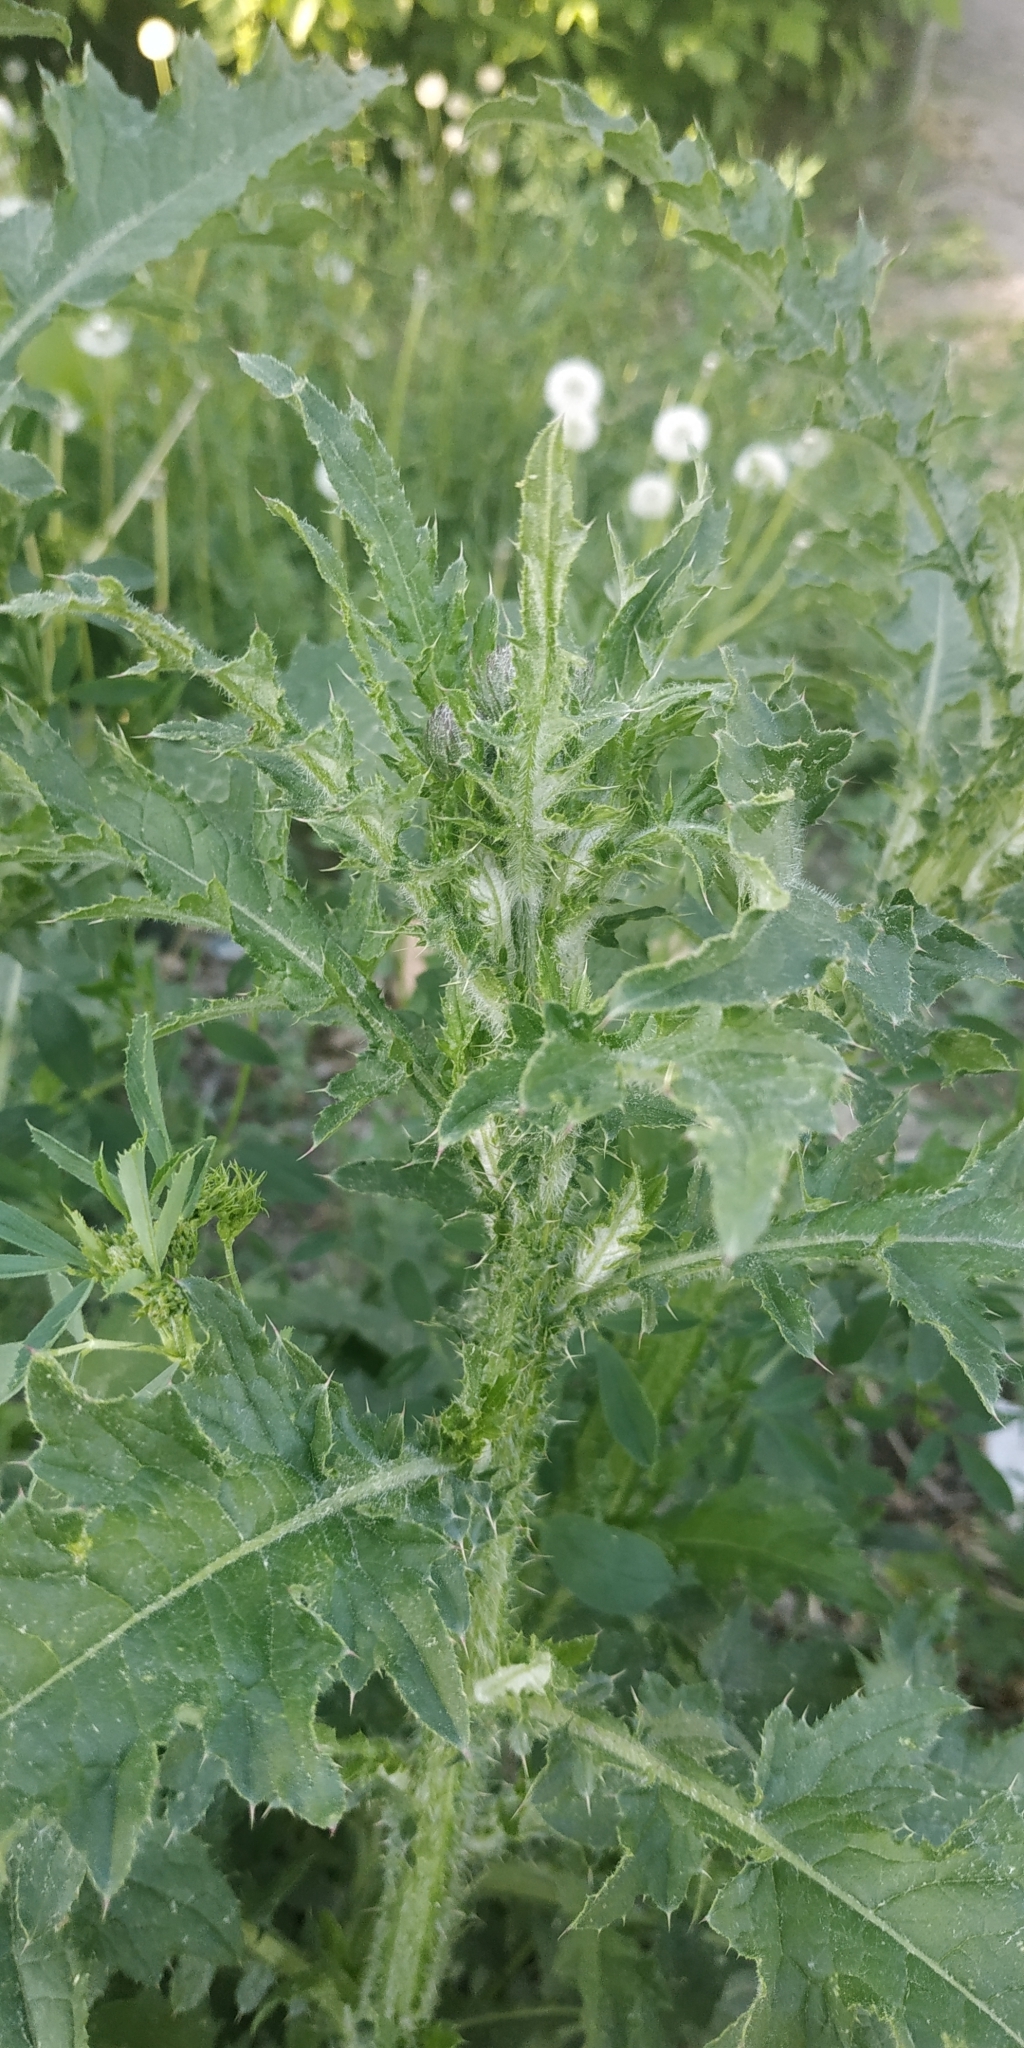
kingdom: Plantae
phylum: Tracheophyta
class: Magnoliopsida
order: Asterales
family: Asteraceae
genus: Carduus
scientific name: Carduus crispus
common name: Welted thistle
